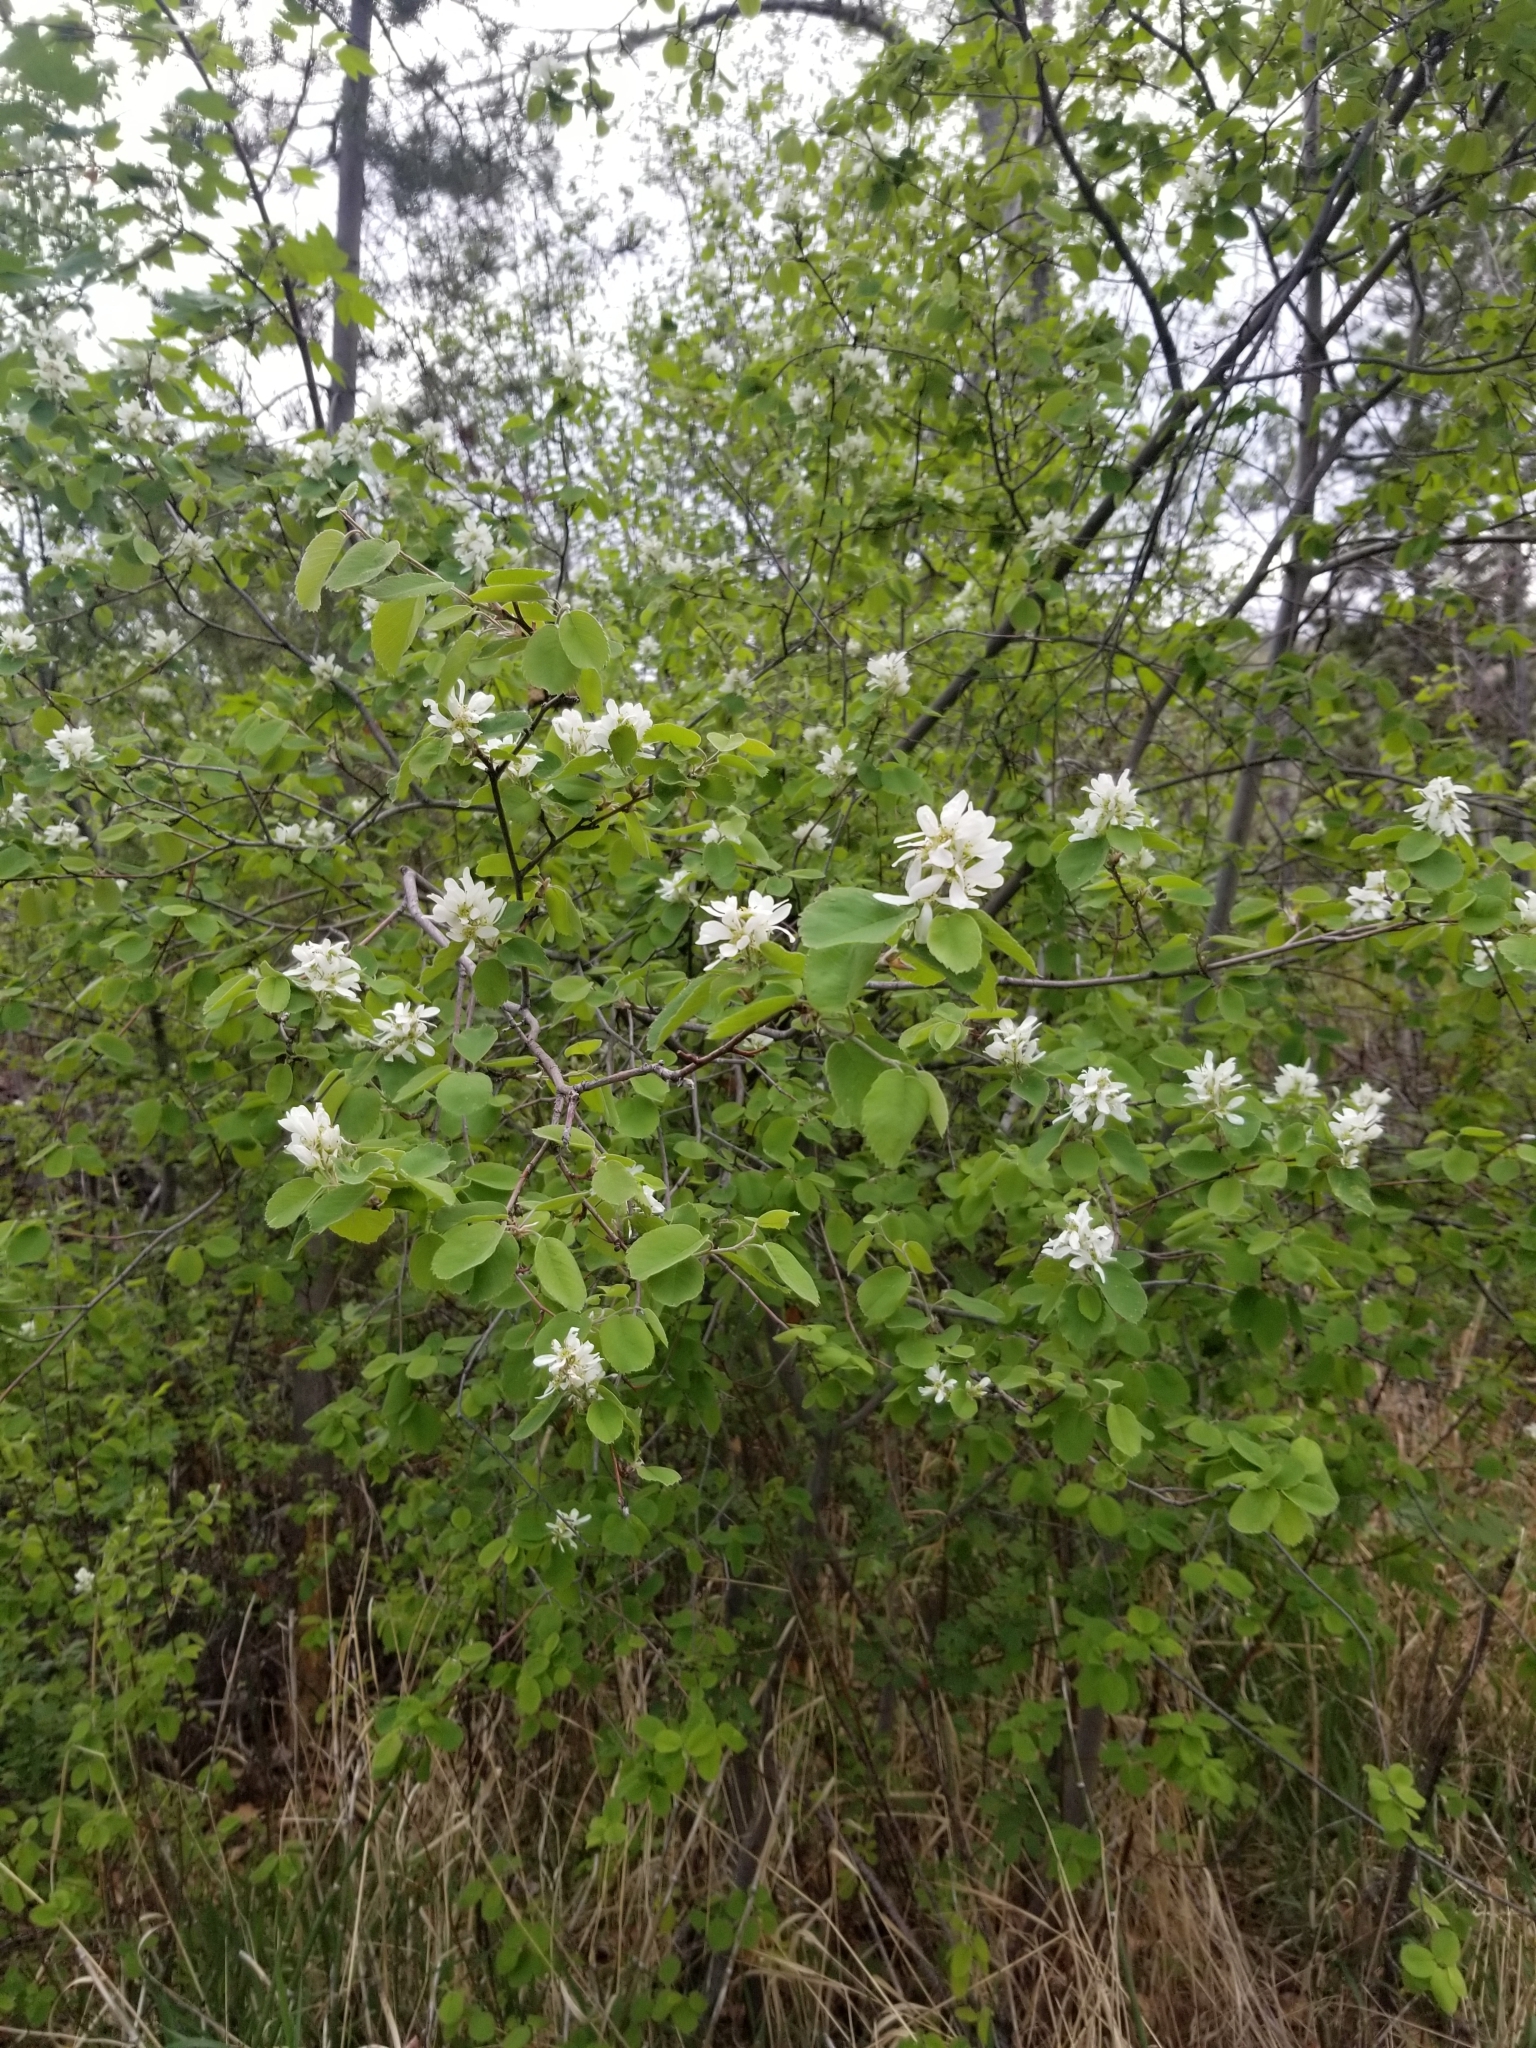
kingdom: Plantae
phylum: Tracheophyta
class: Magnoliopsida
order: Rosales
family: Rosaceae
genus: Amelanchier
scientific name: Amelanchier alnifolia
